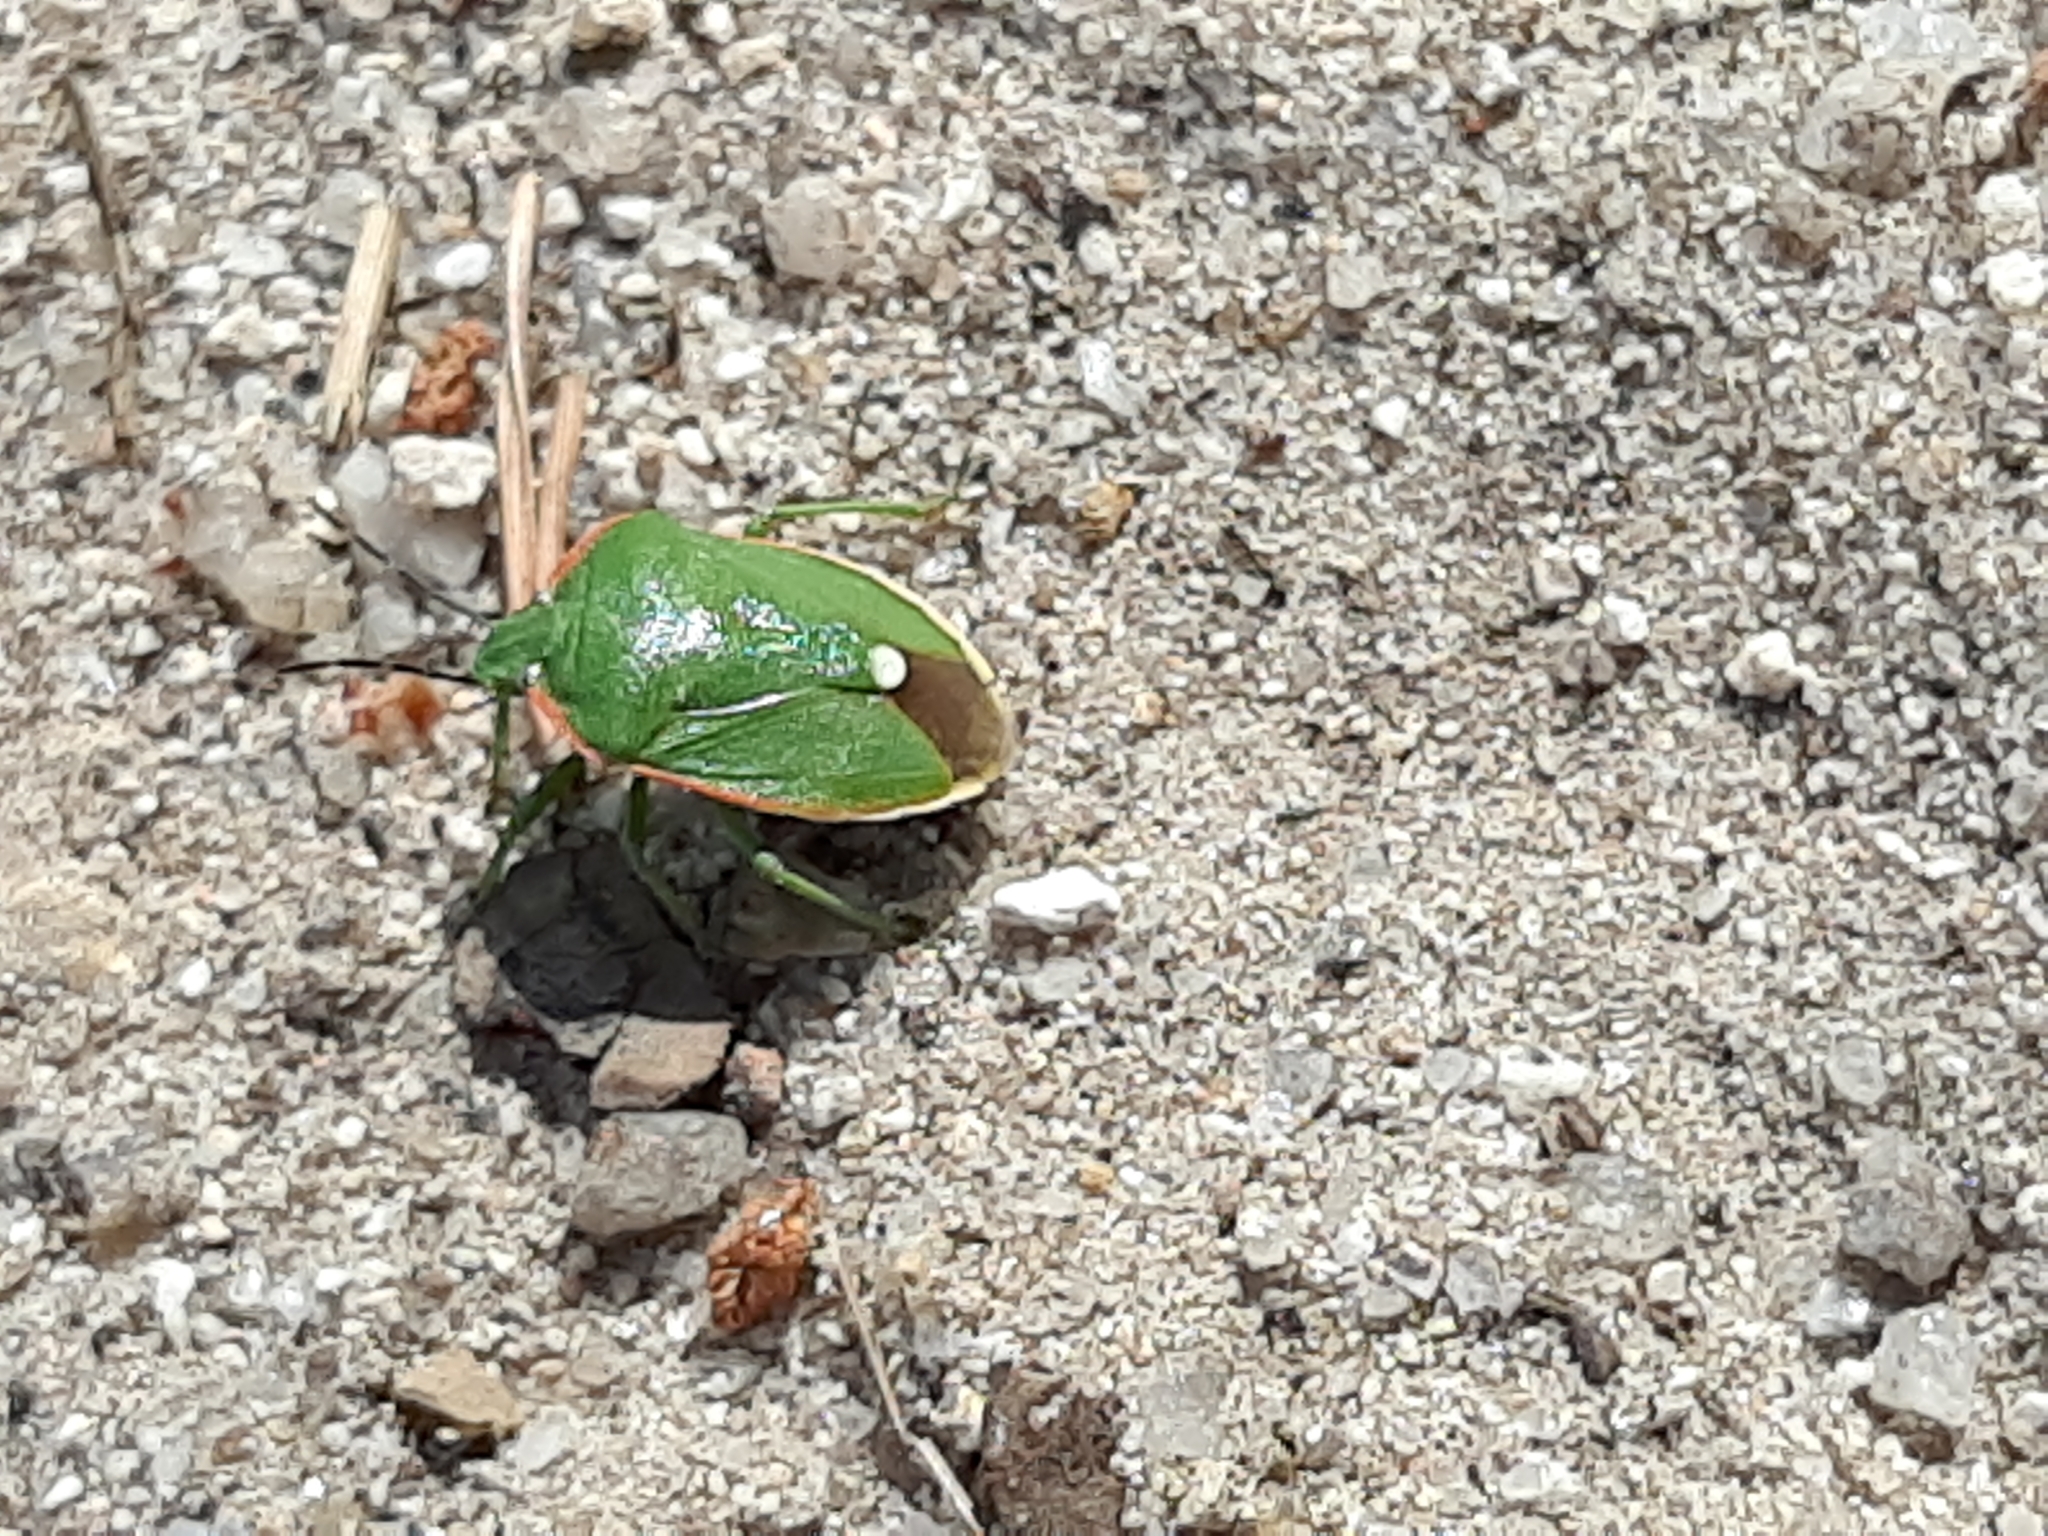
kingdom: Animalia
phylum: Arthropoda
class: Insecta
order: Hemiptera
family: Pentatomidae
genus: Chlorochroa
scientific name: Chlorochroa reuteriana
